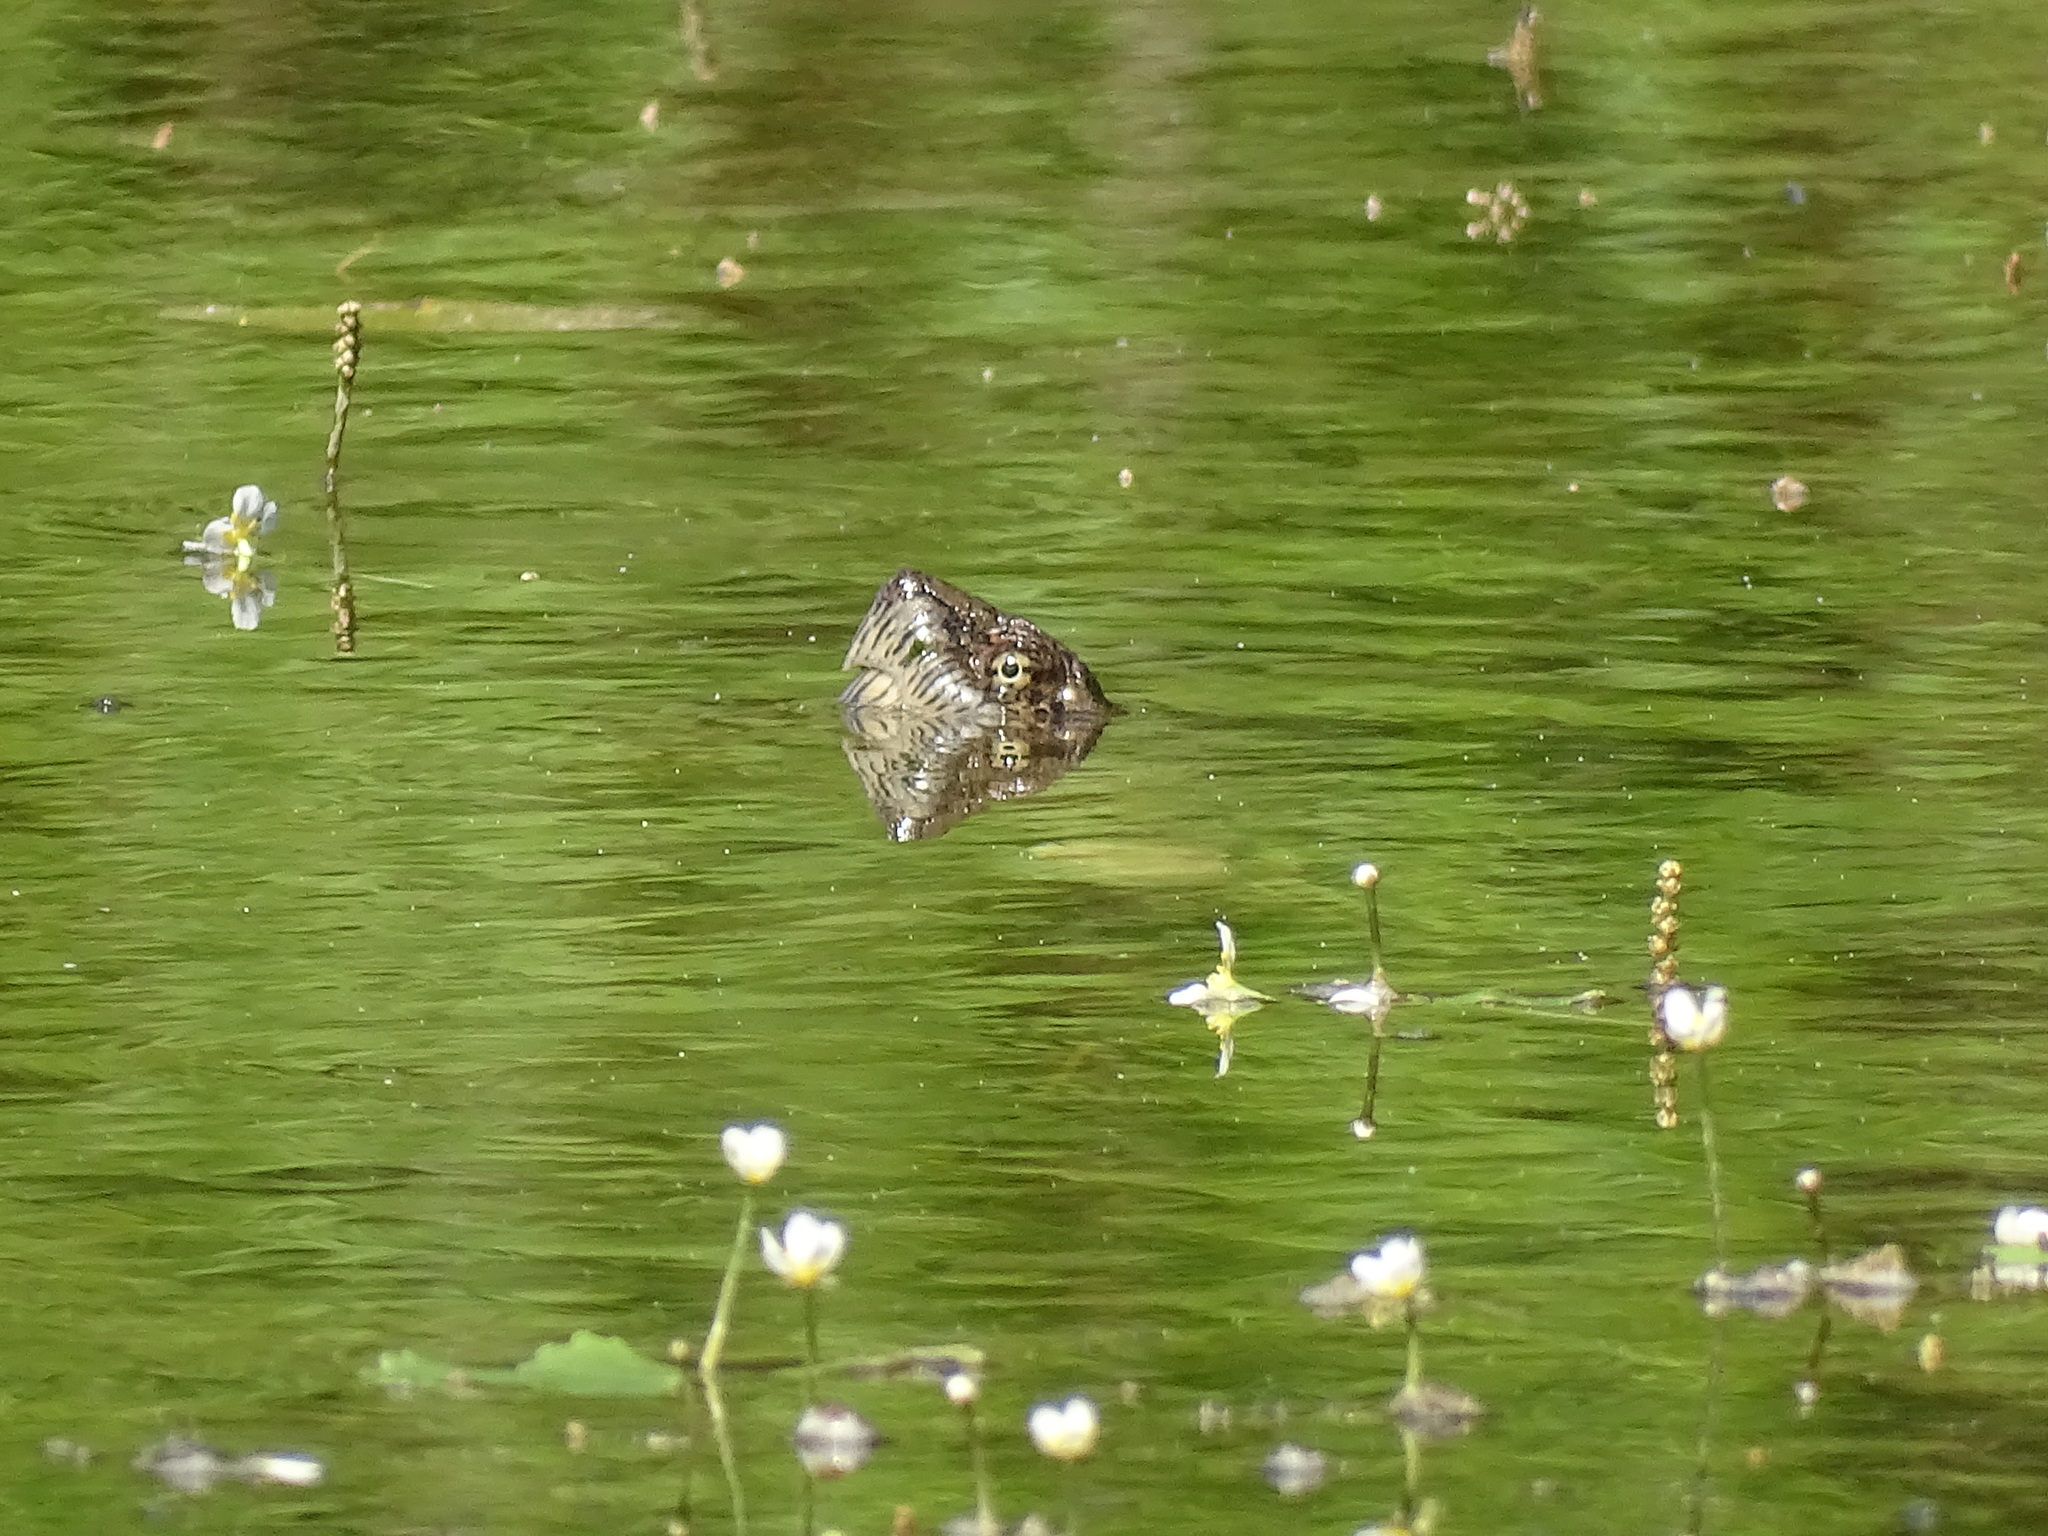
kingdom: Animalia
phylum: Chordata
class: Testudines
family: Chelydridae
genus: Chelydra
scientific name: Chelydra serpentina
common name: Common snapping turtle
